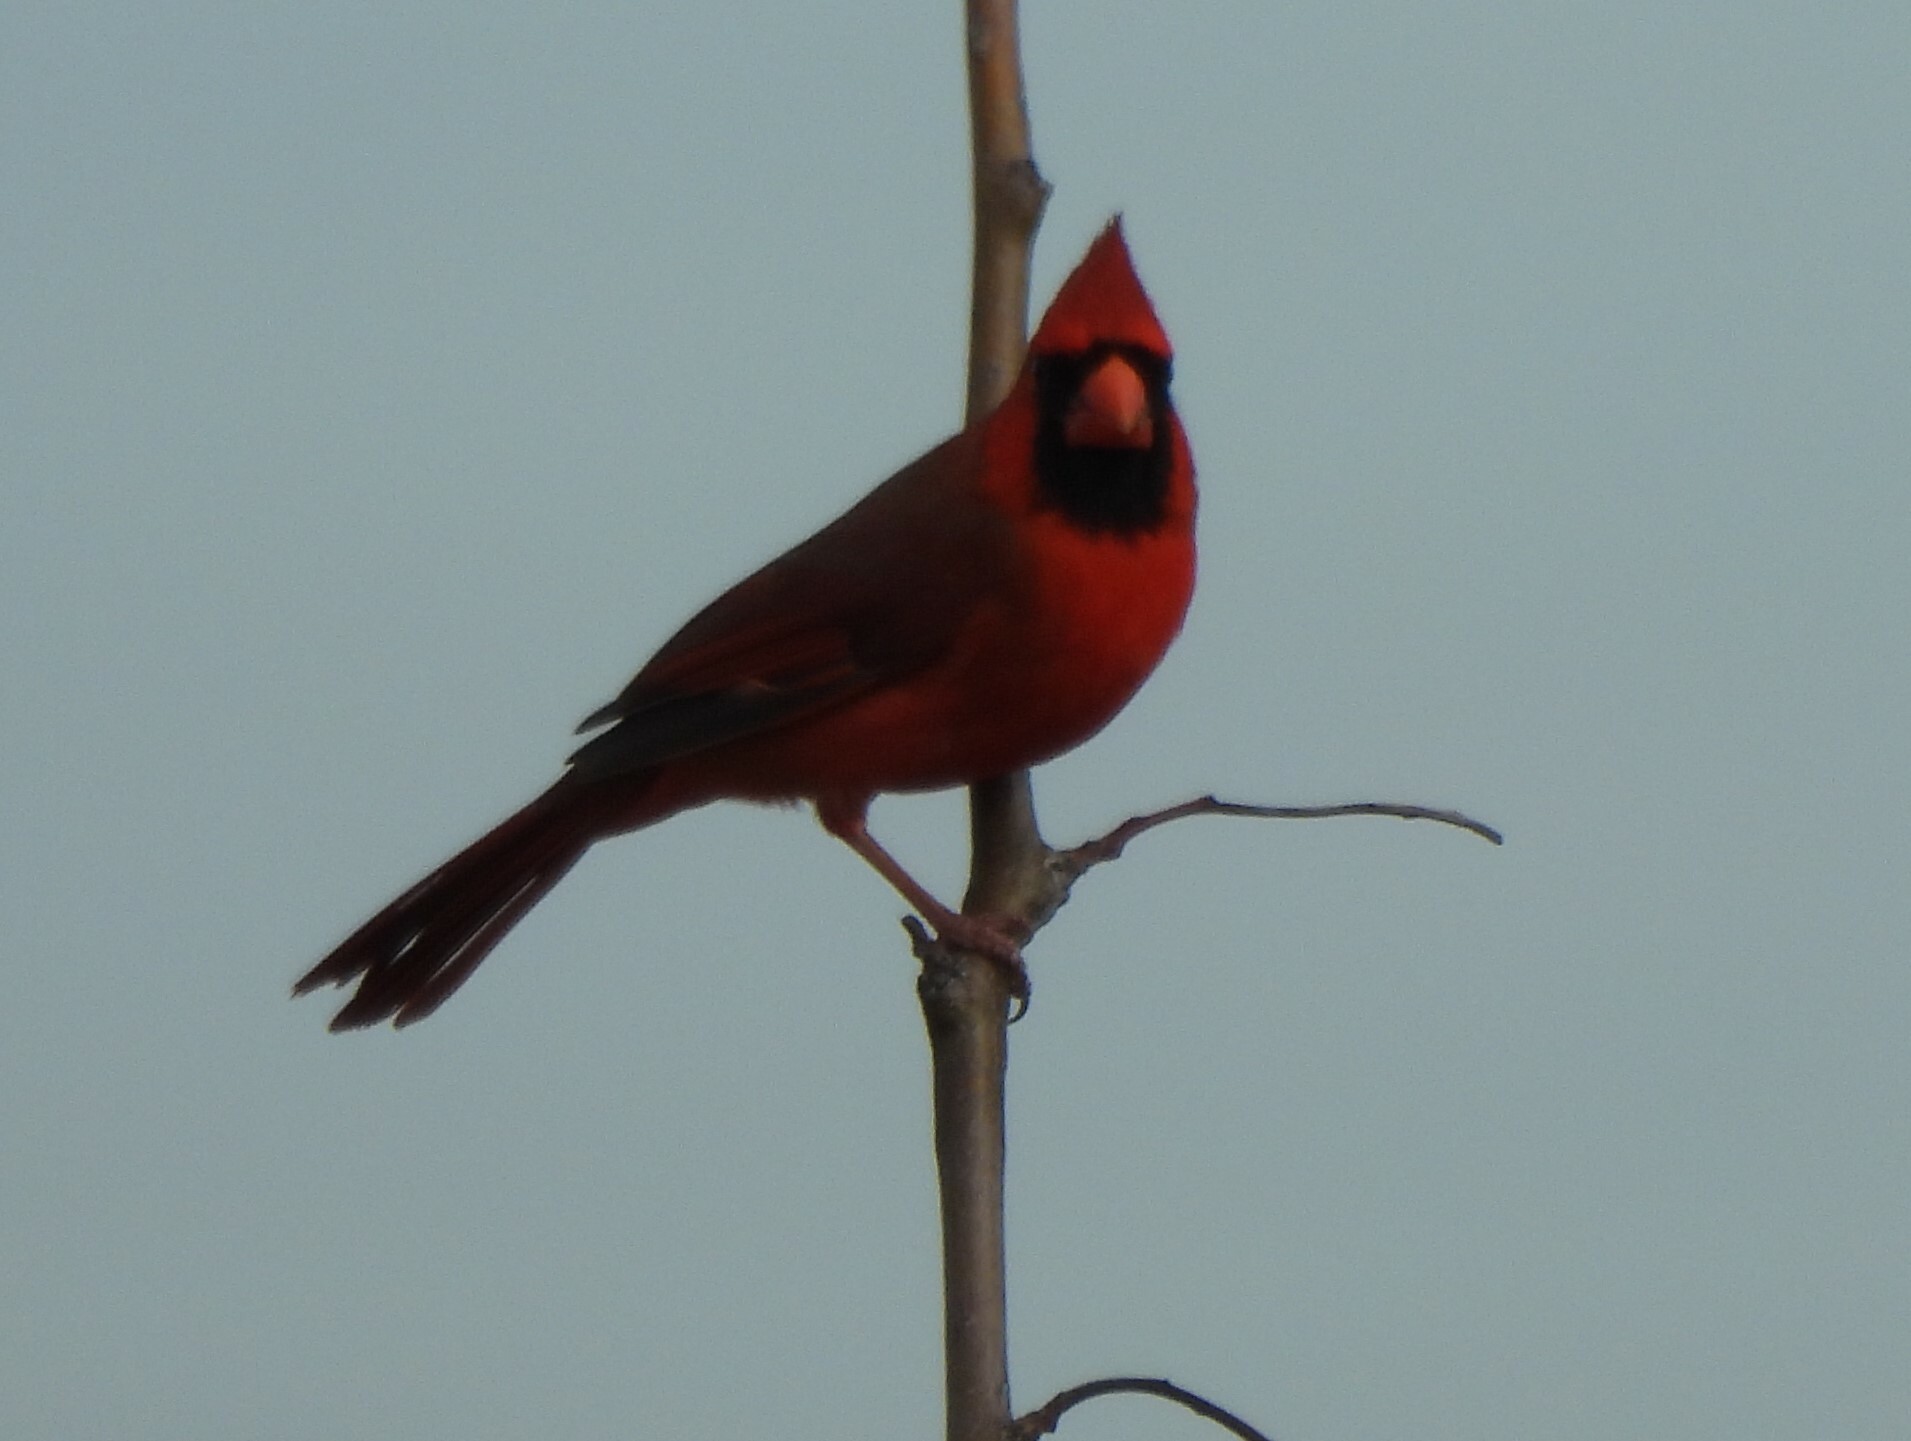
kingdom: Animalia
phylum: Chordata
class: Aves
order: Passeriformes
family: Cardinalidae
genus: Cardinalis
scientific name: Cardinalis cardinalis
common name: Northern cardinal
